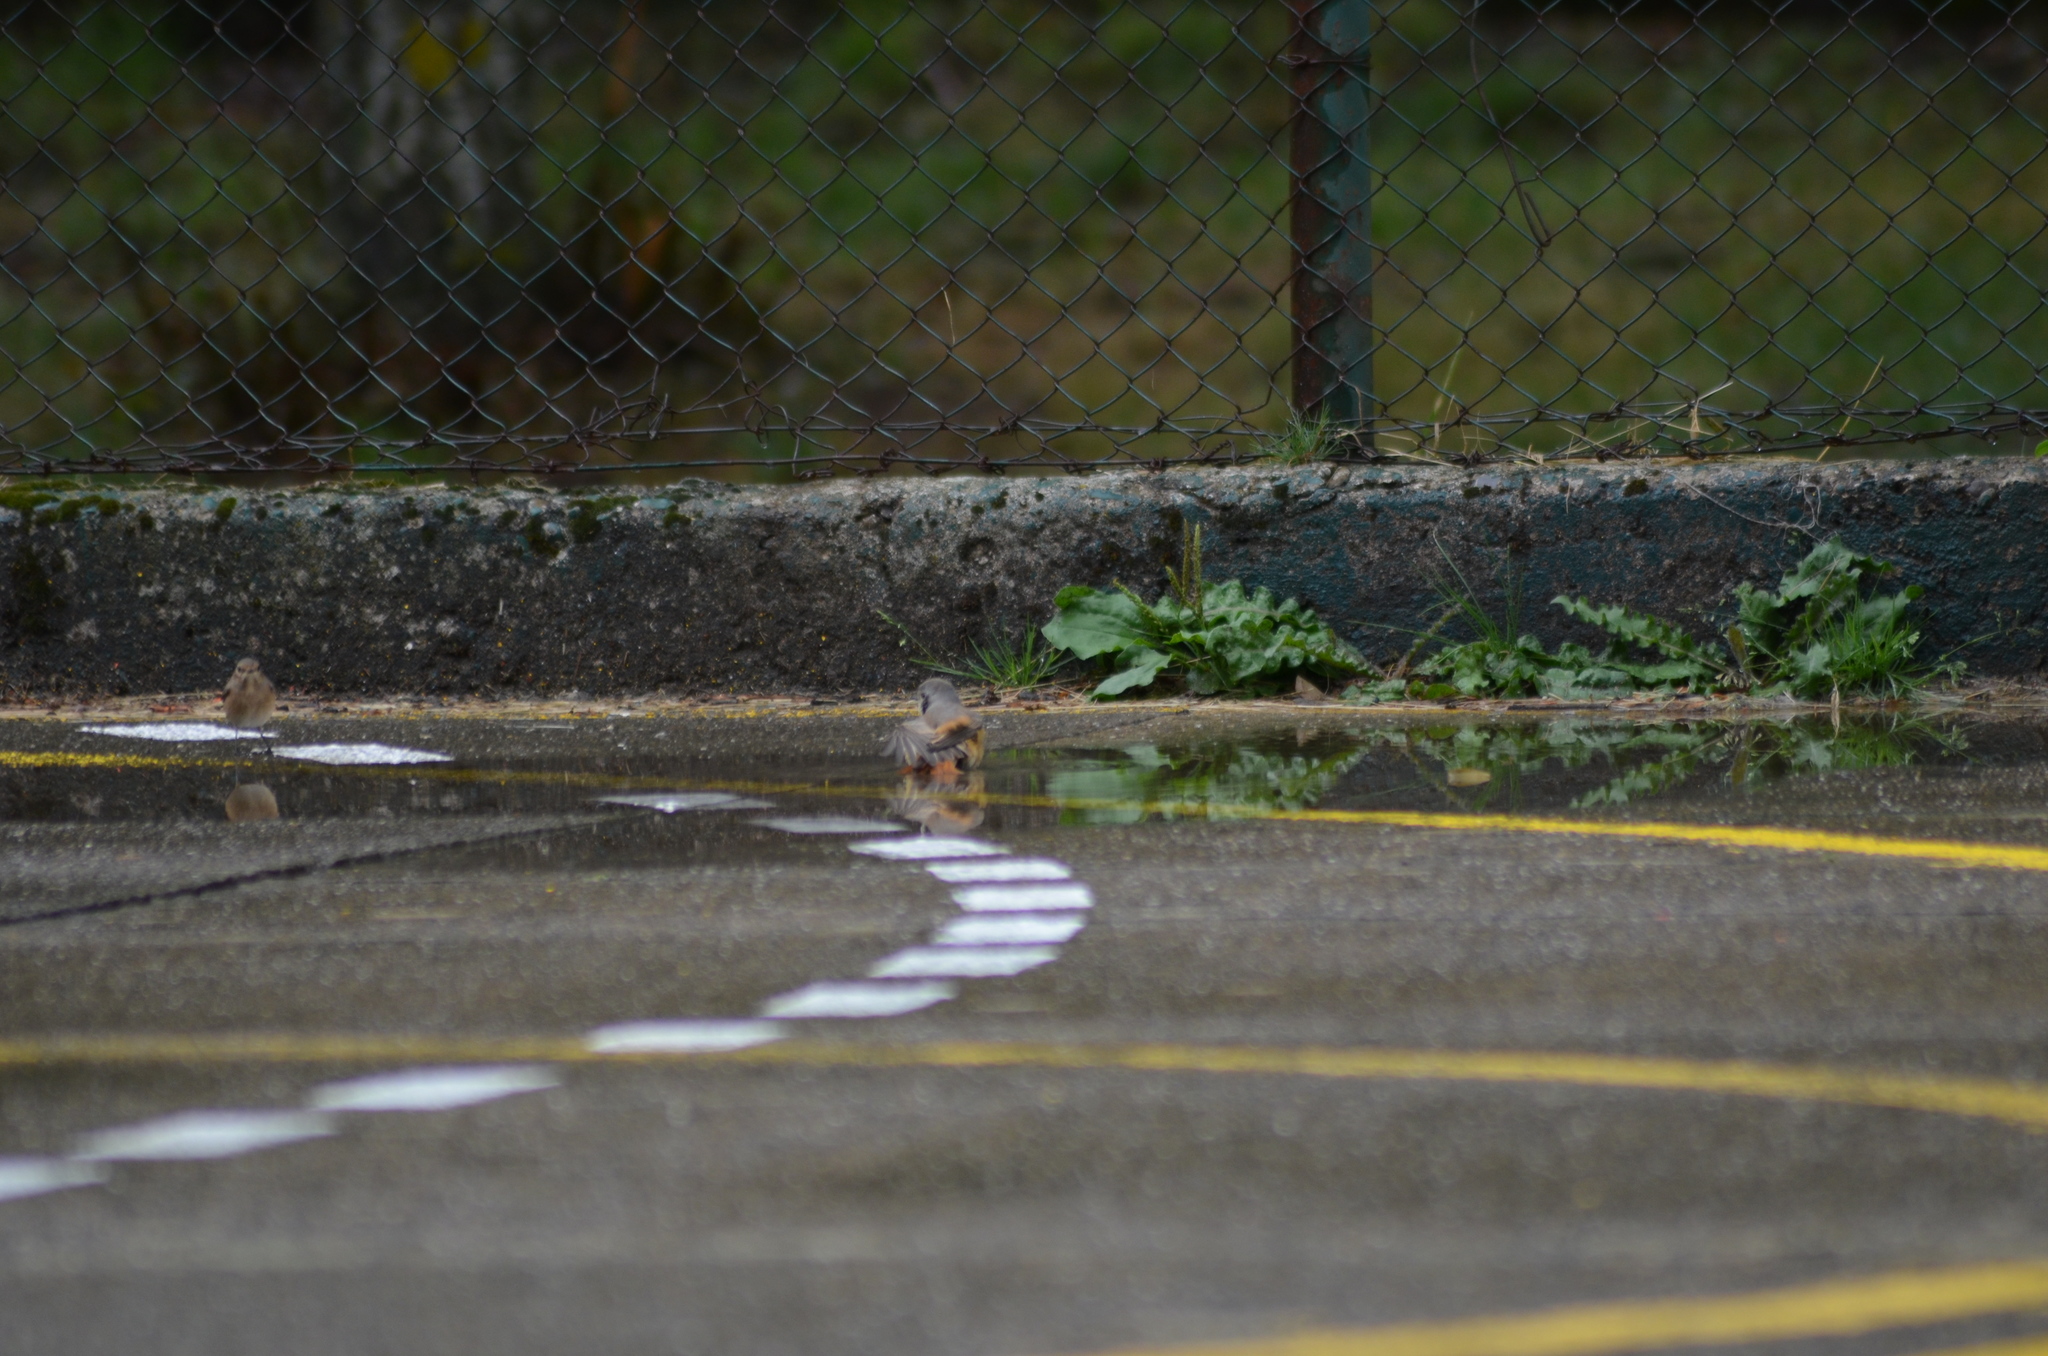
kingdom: Animalia
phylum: Chordata
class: Aves
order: Passeriformes
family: Muscicapidae
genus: Phoenicurus
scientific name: Phoenicurus phoenicurus
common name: Common redstart
